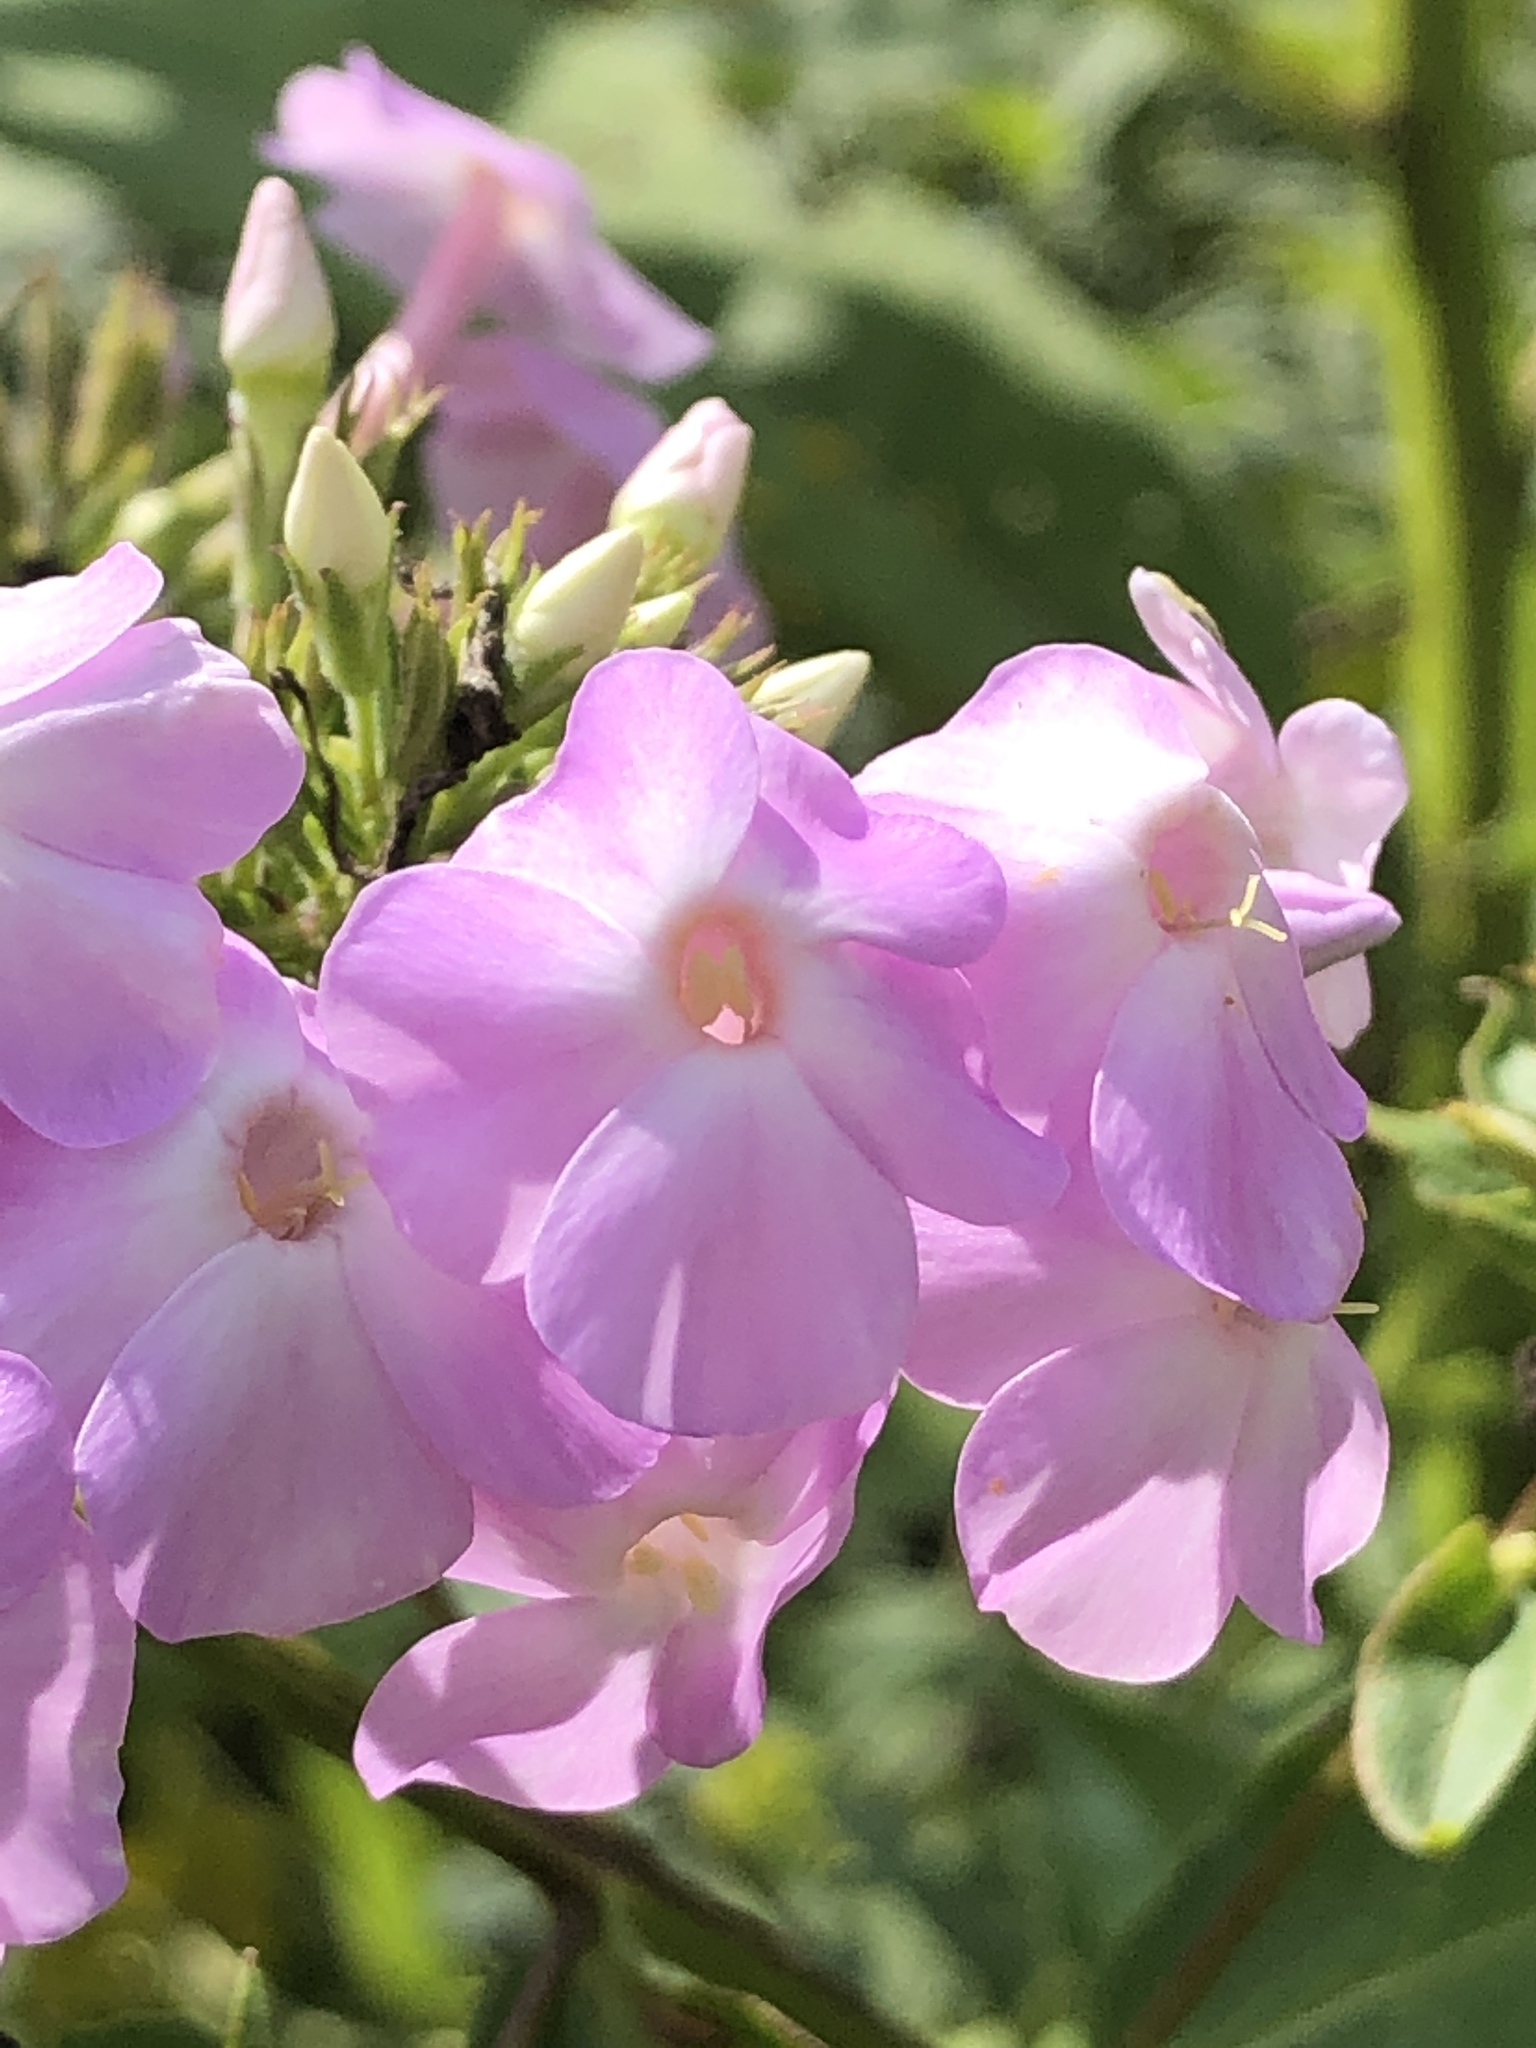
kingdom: Plantae
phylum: Tracheophyta
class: Magnoliopsida
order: Ericales
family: Polemoniaceae
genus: Phlox
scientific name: Phlox paniculata
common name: Fall phlox
